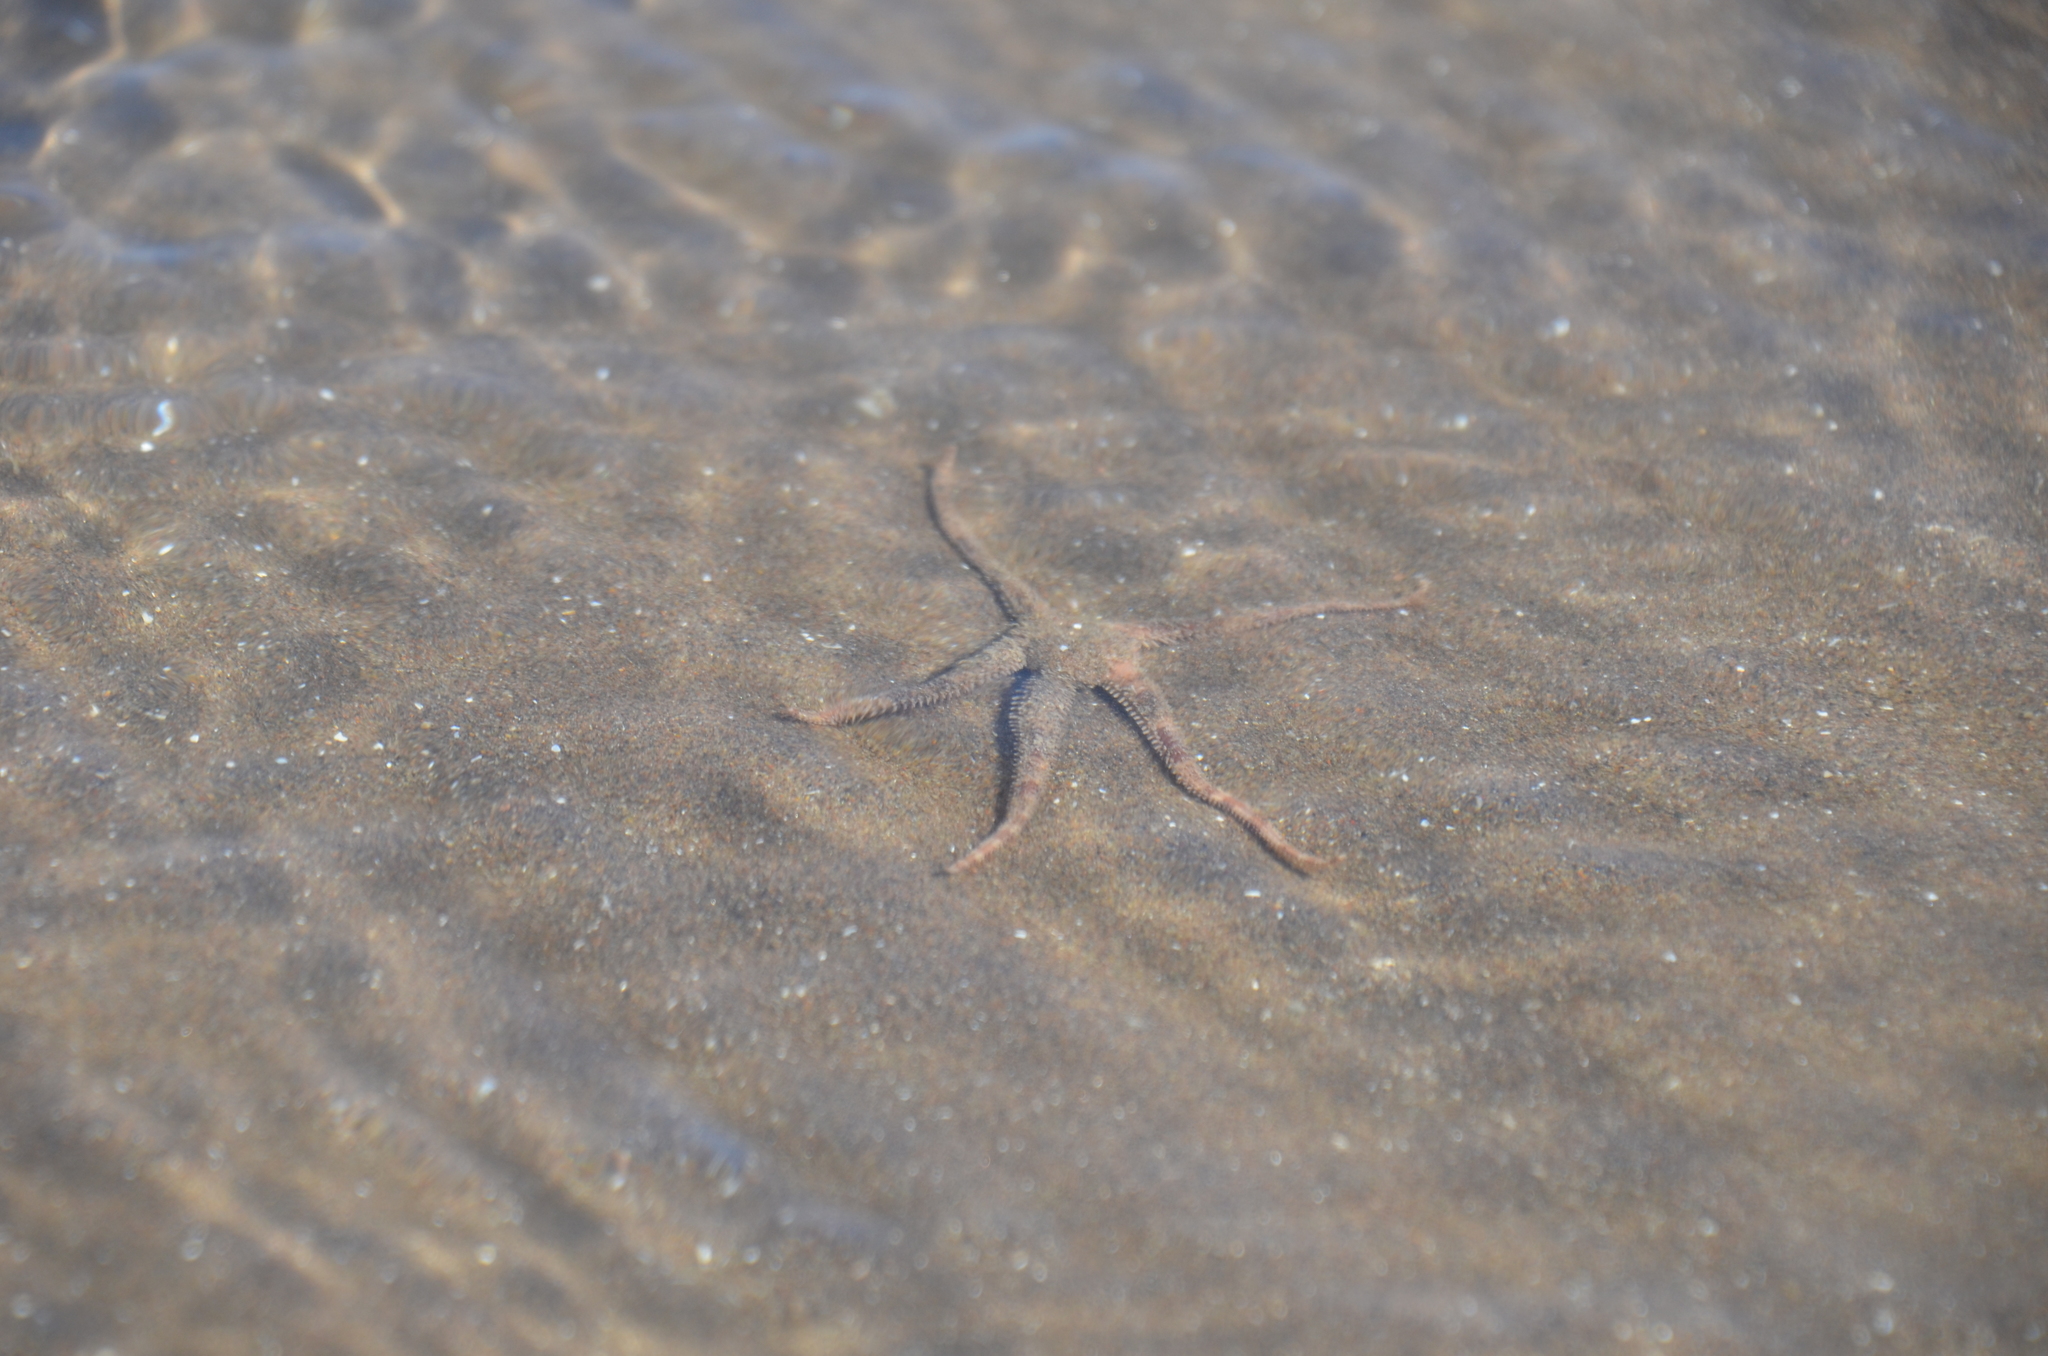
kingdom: Animalia
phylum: Echinodermata
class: Ophiuroidea
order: Amphilepidida
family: Hemieuryalidae
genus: Ophioplocus
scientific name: Ophioplocus januarii
